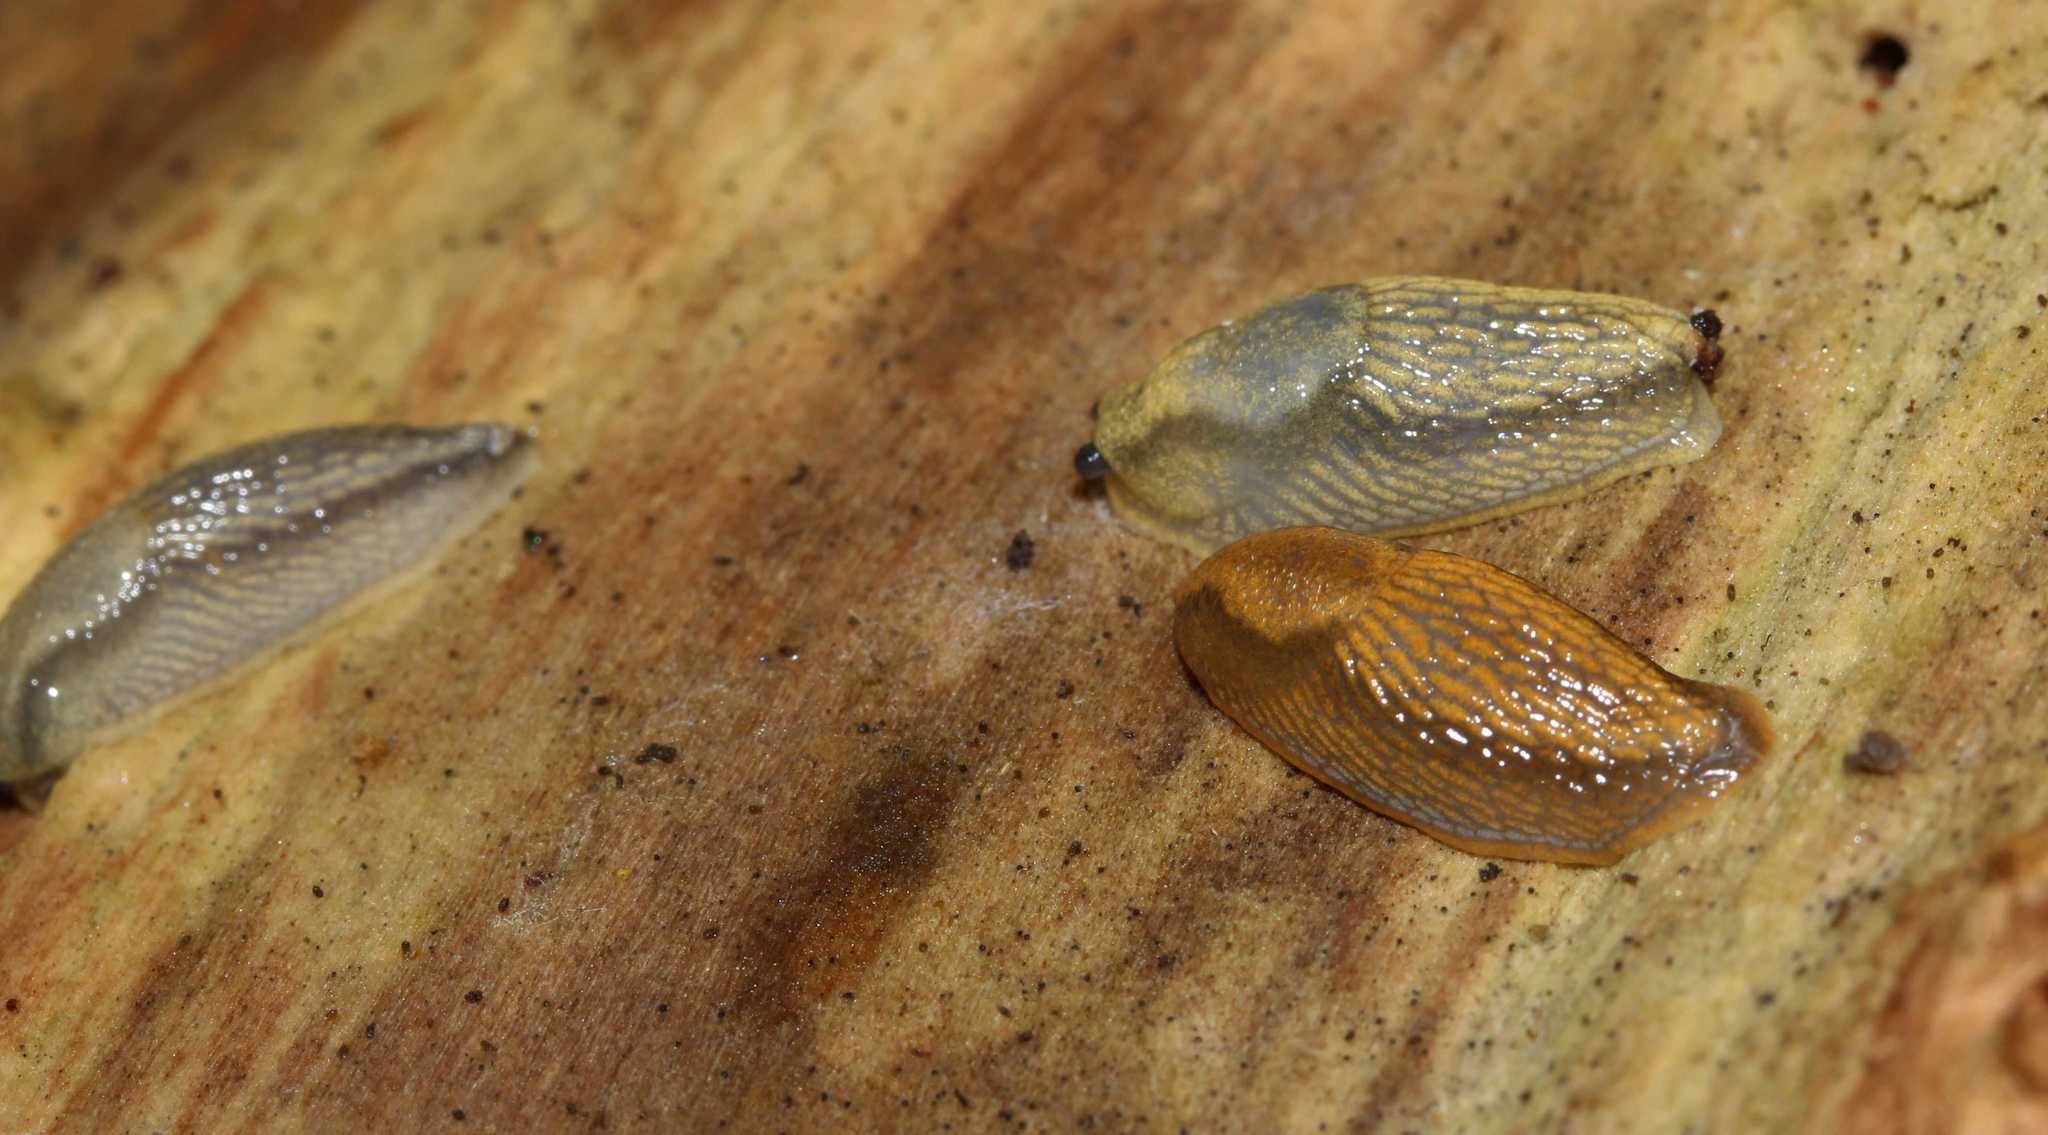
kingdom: Animalia
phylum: Mollusca
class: Gastropoda
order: Stylommatophora
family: Arionidae
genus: Arion
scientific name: Arion
